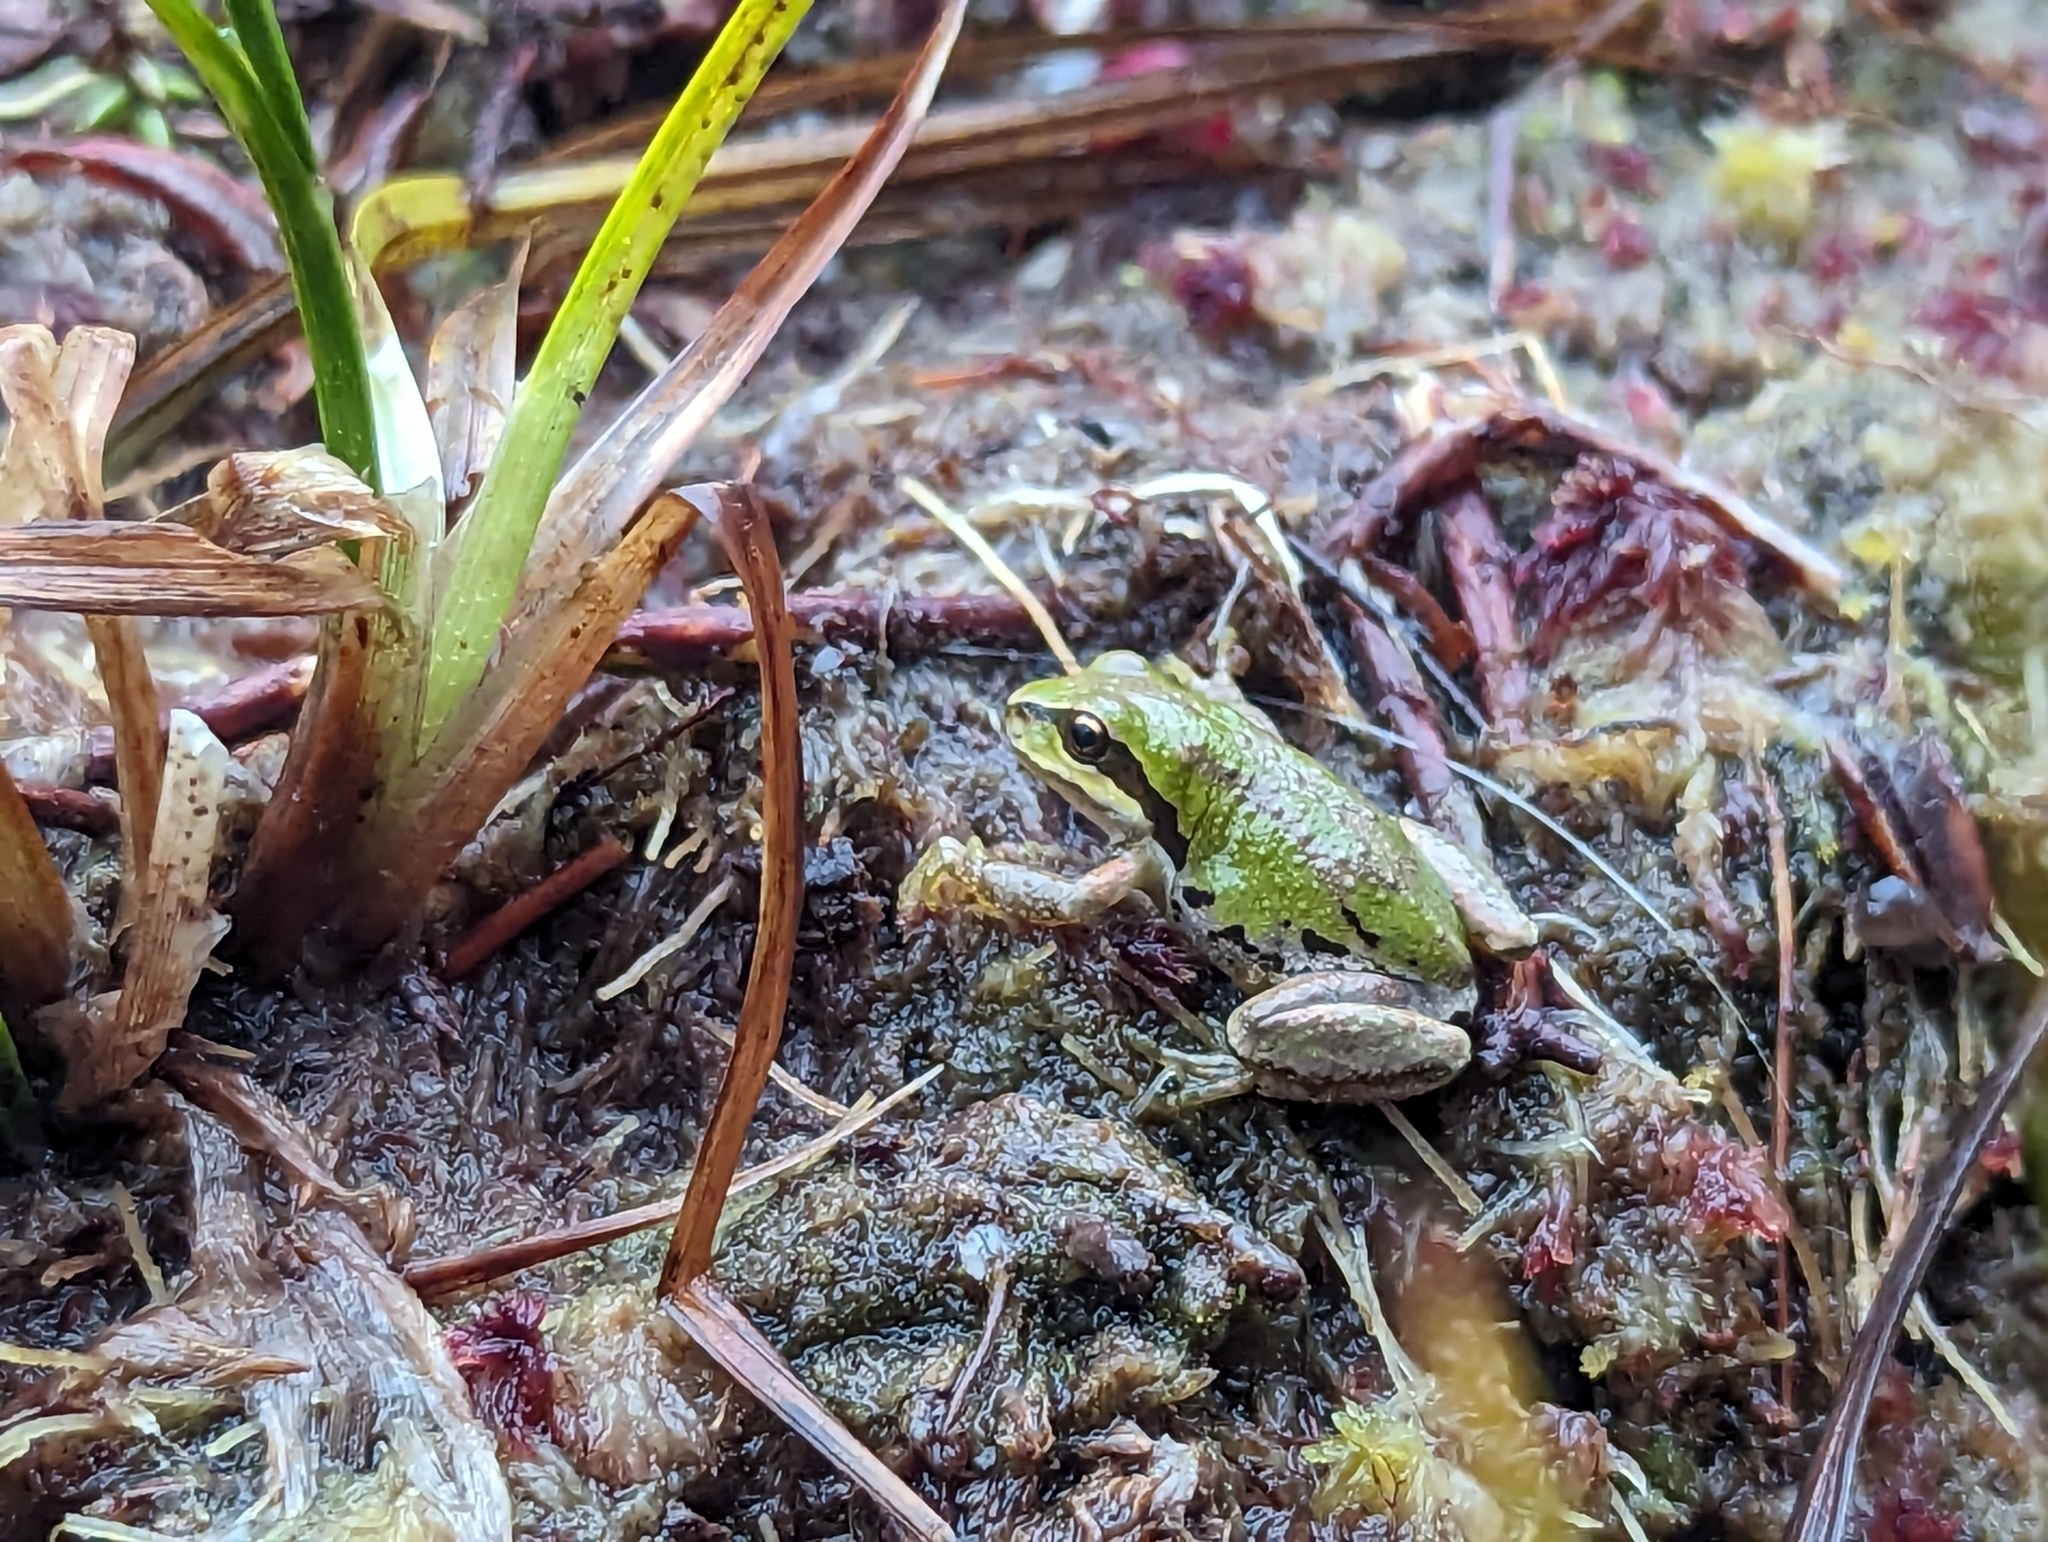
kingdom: Animalia
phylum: Chordata
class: Amphibia
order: Anura
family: Hylidae
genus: Pseudacris
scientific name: Pseudacris regilla
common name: Pacific chorus frog
